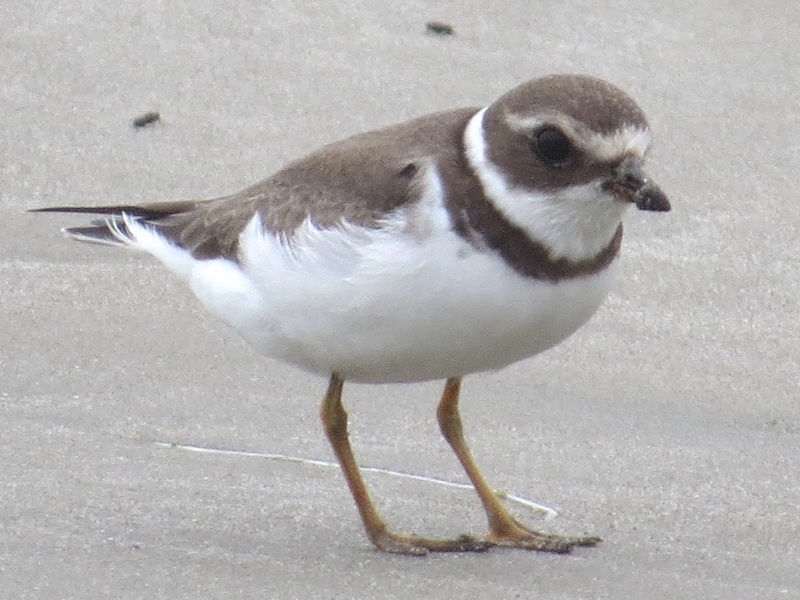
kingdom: Animalia
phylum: Chordata
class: Aves
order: Charadriiformes
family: Charadriidae
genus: Charadrius
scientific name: Charadrius semipalmatus
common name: Semipalmated plover
